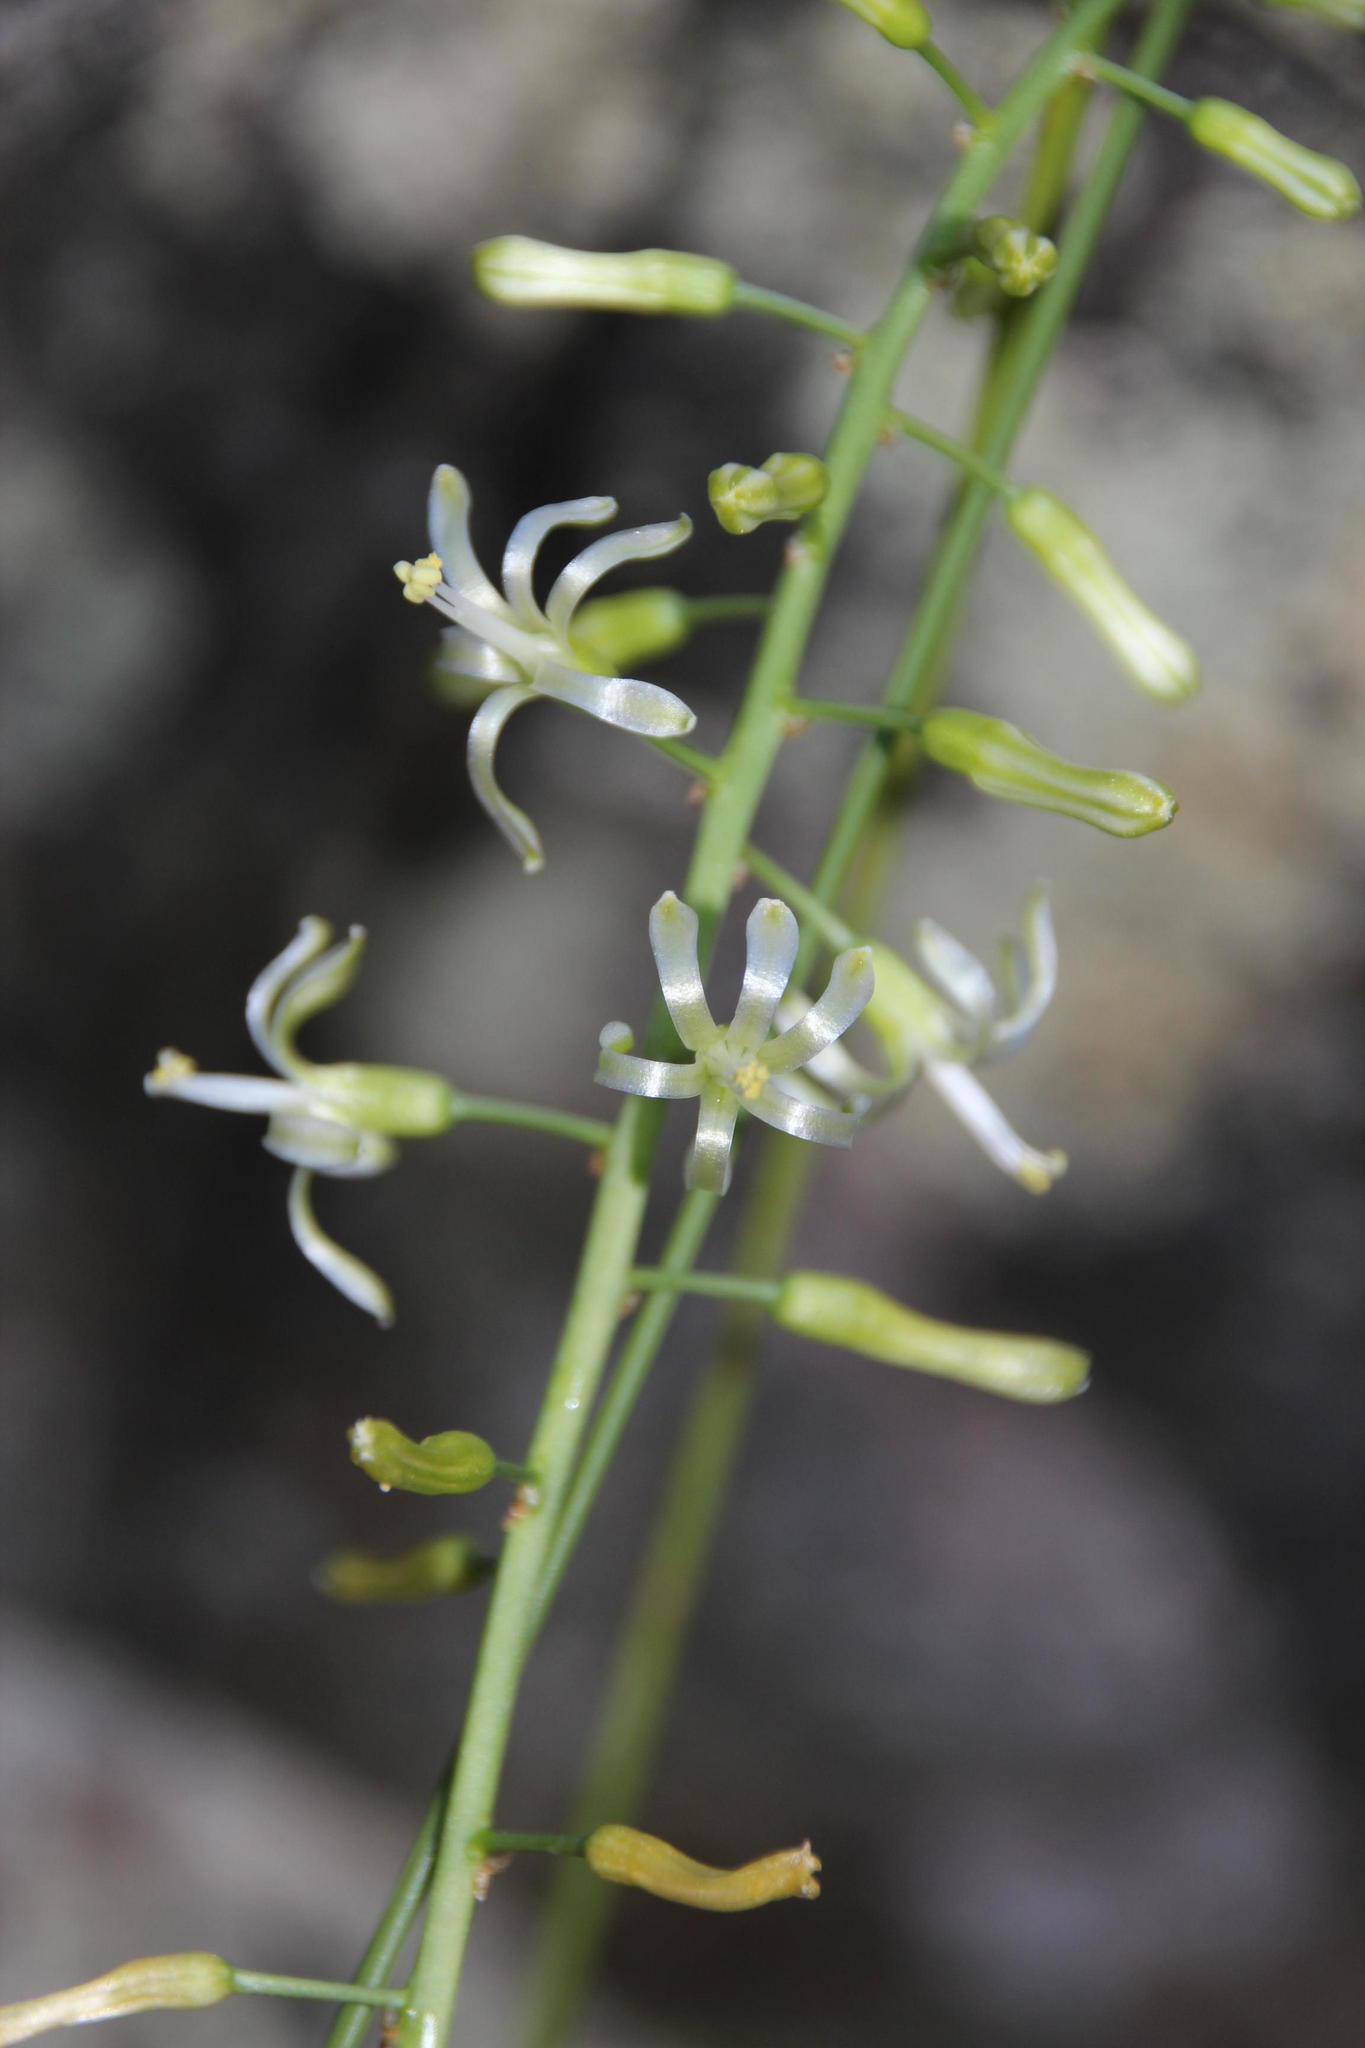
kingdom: Plantae
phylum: Tracheophyta
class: Liliopsida
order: Asparagales
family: Asparagaceae
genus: Drimia
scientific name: Drimia elata
